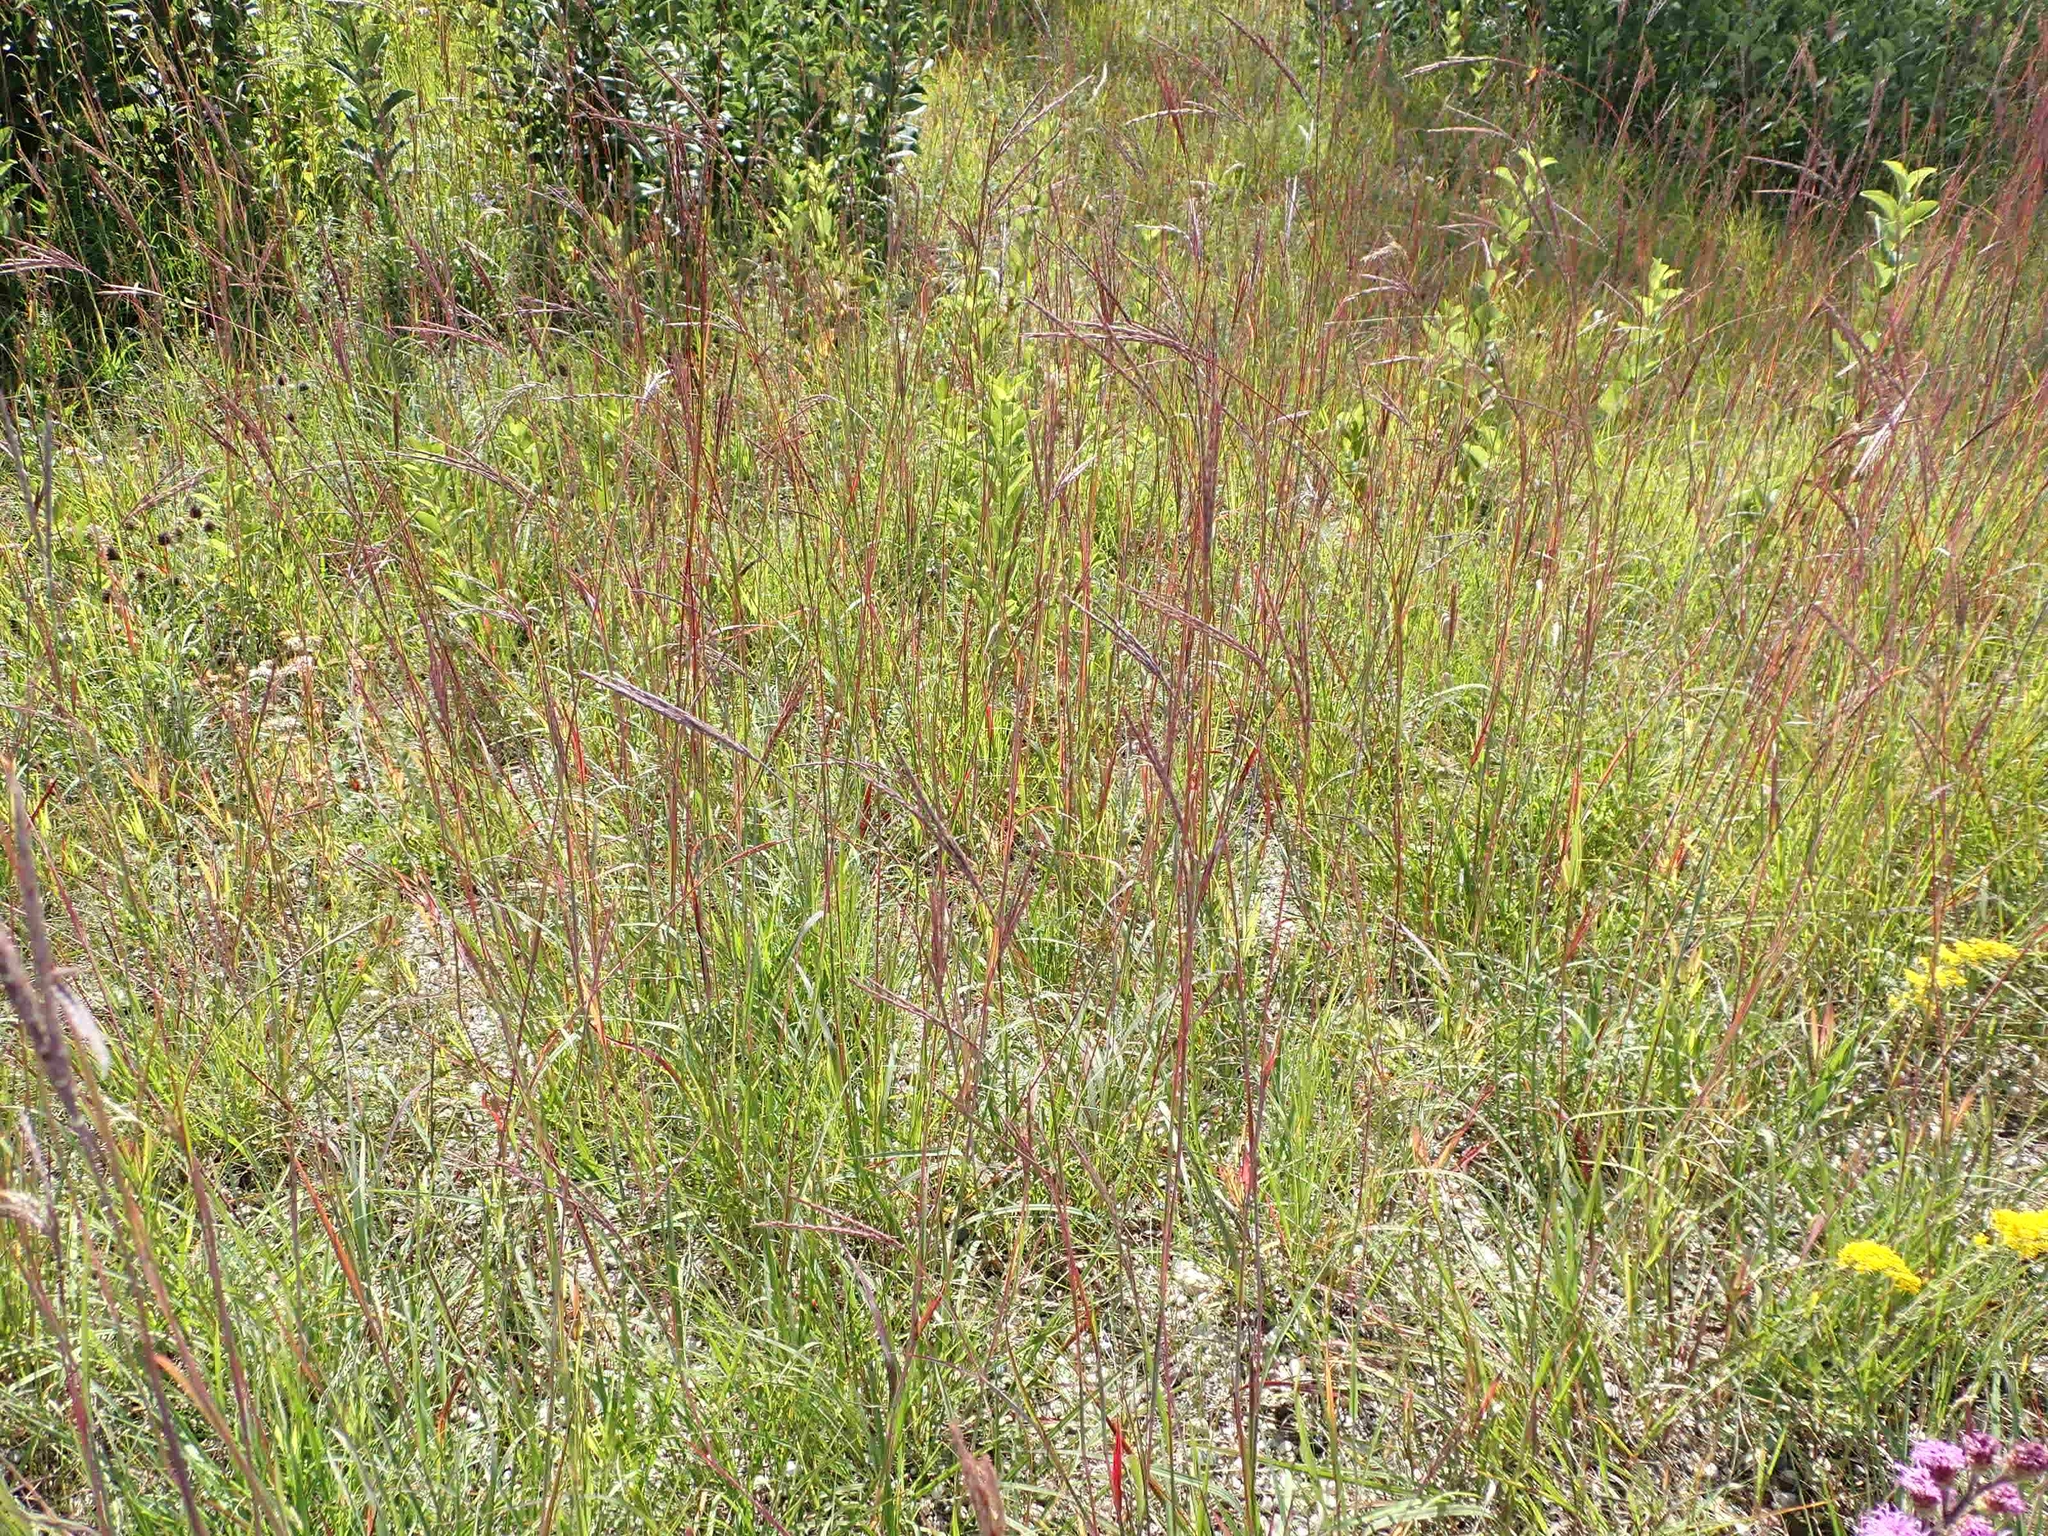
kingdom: Plantae
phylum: Tracheophyta
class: Liliopsida
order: Poales
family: Poaceae
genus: Andropogon
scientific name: Andropogon gerardi
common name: Big bluestem
